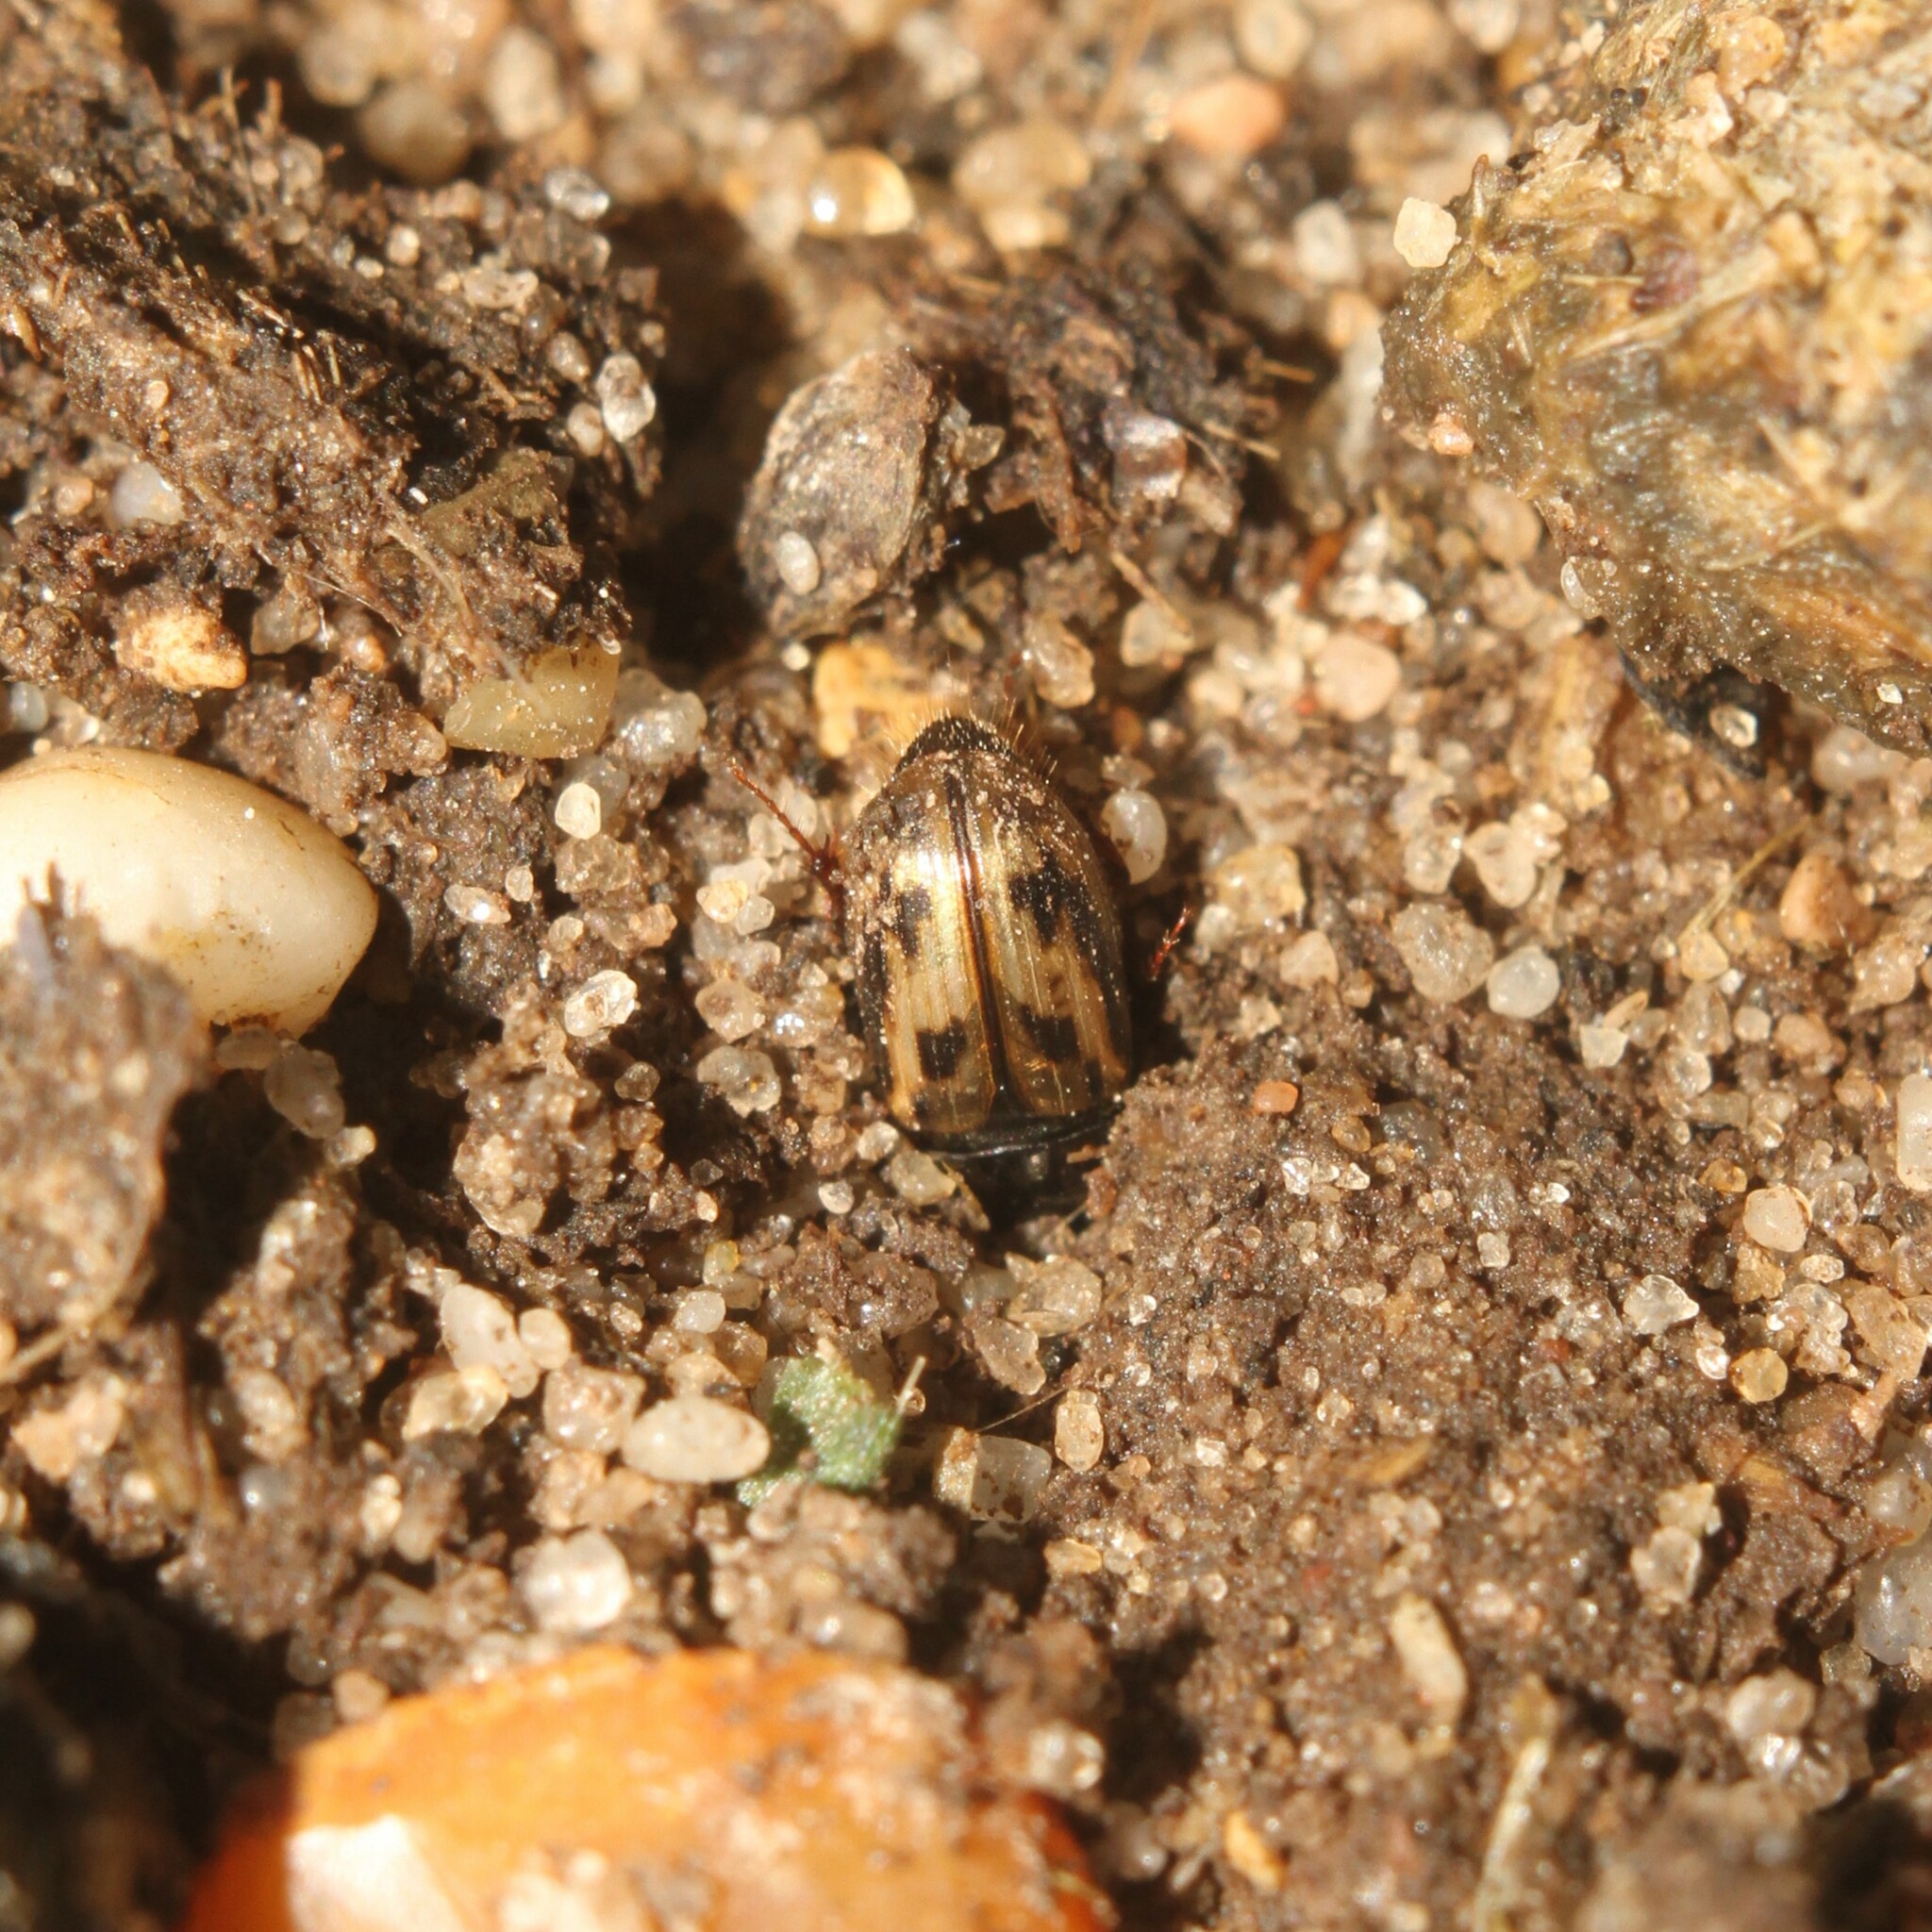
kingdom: Animalia
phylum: Arthropoda
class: Insecta
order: Coleoptera
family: Scarabaeidae
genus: Chilothorax
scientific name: Chilothorax distinctus
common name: Maculated dung beetle
